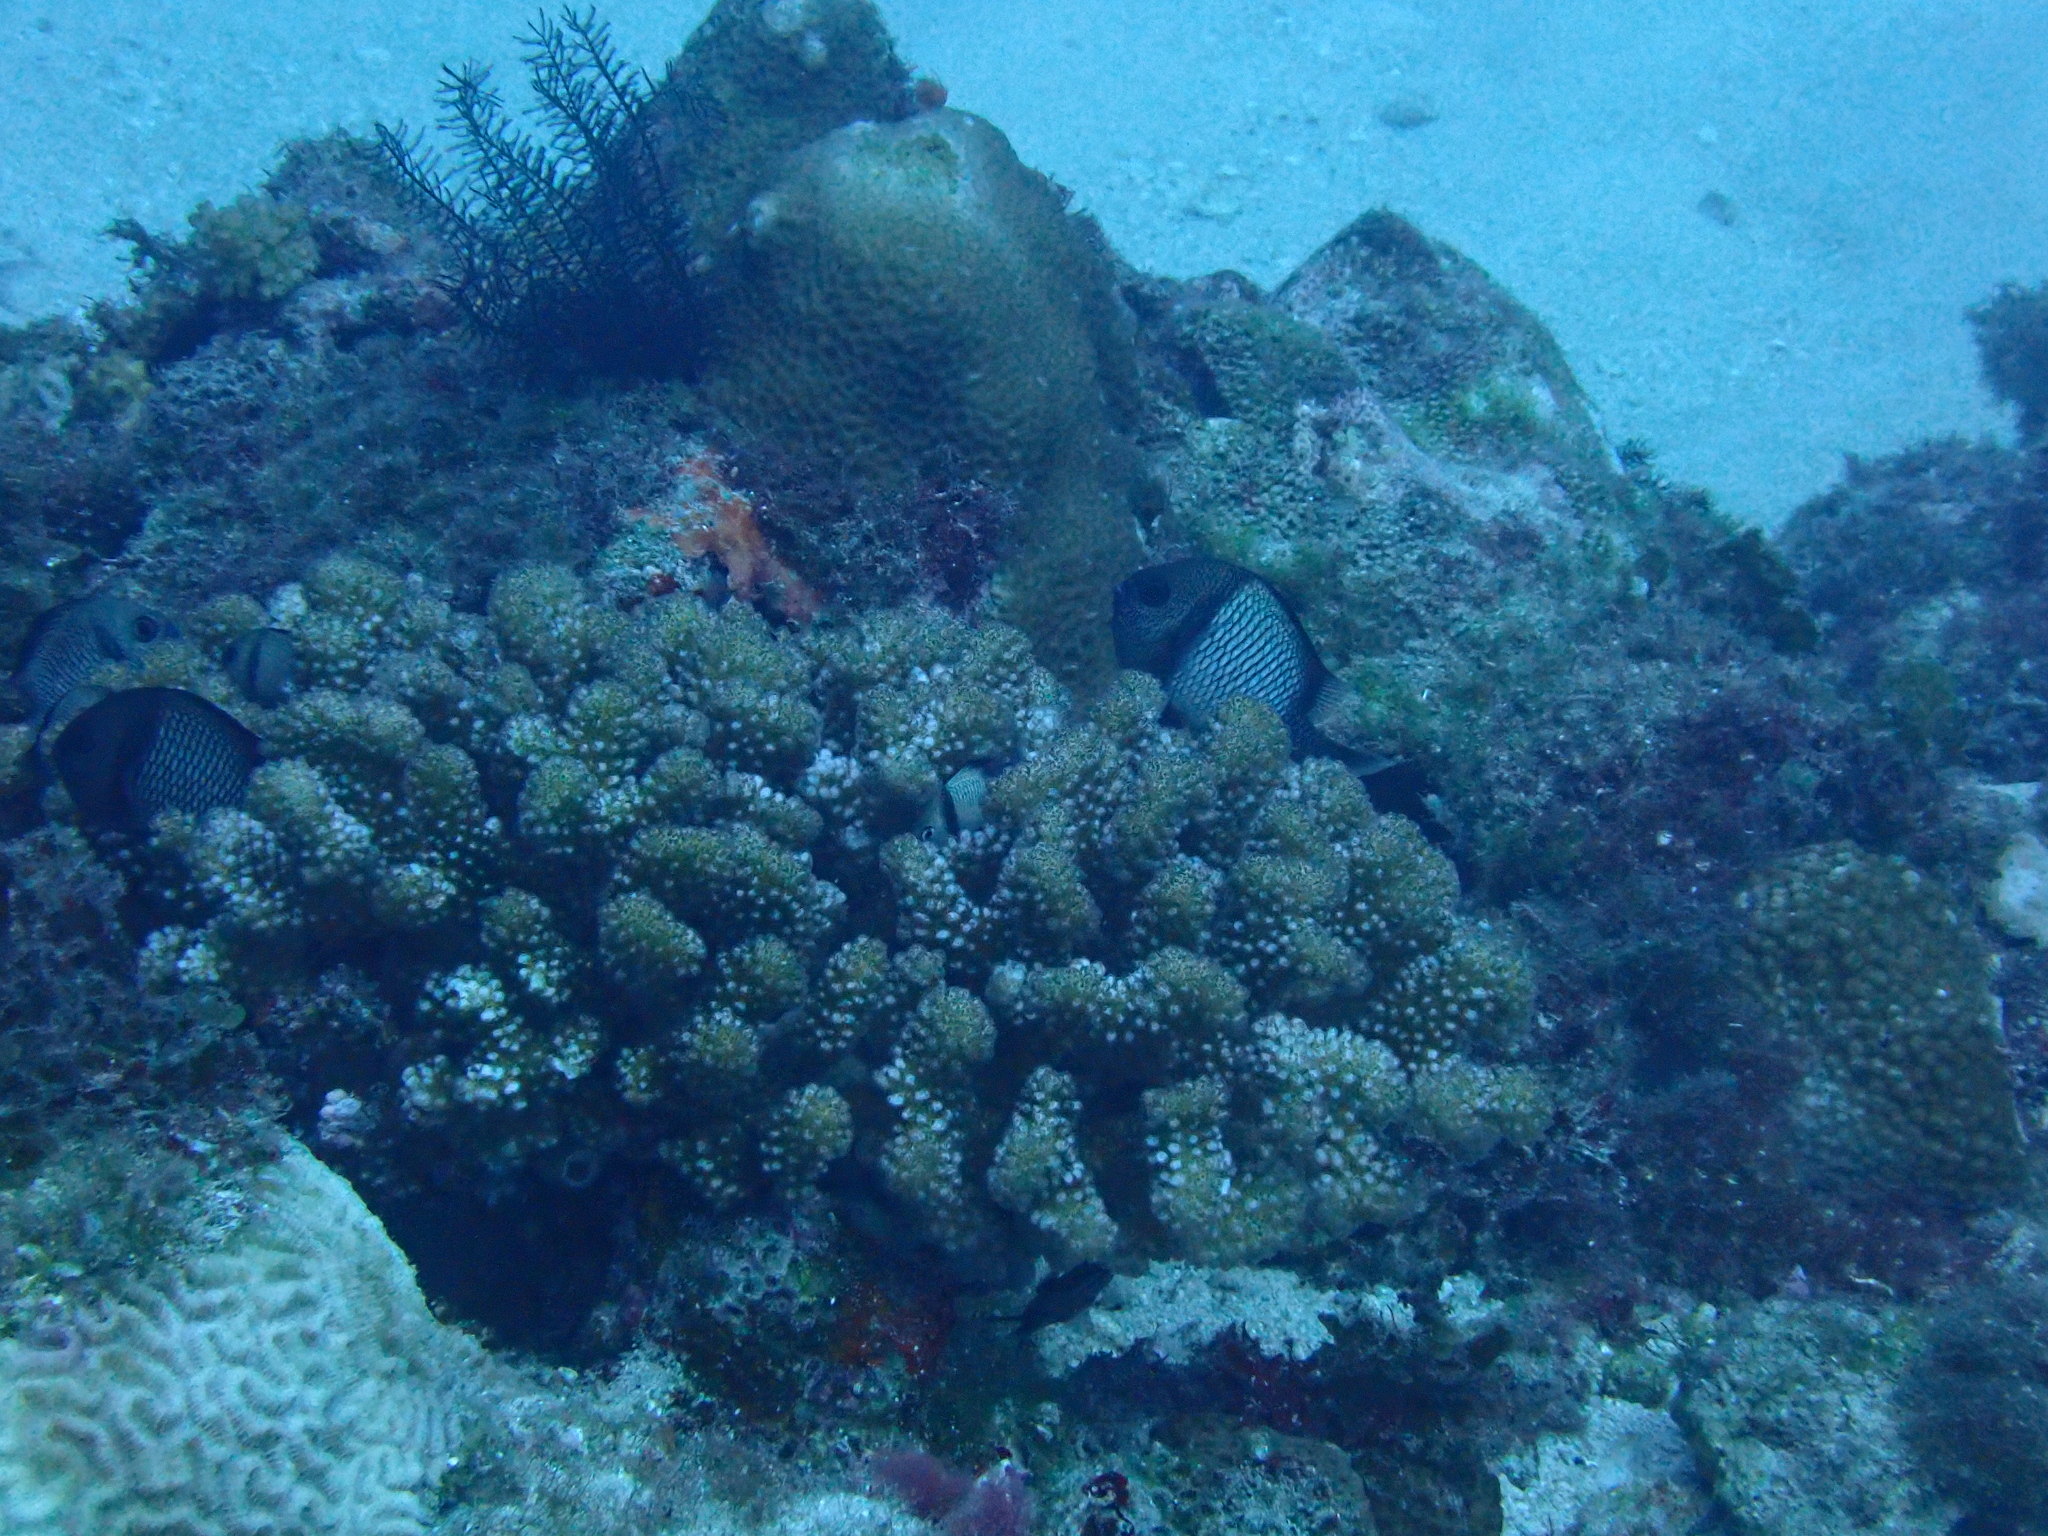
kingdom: Animalia
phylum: Chordata
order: Perciformes
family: Pomacentridae
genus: Dascyllus
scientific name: Dascyllus reticulatus
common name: Reticulated dascyllus
